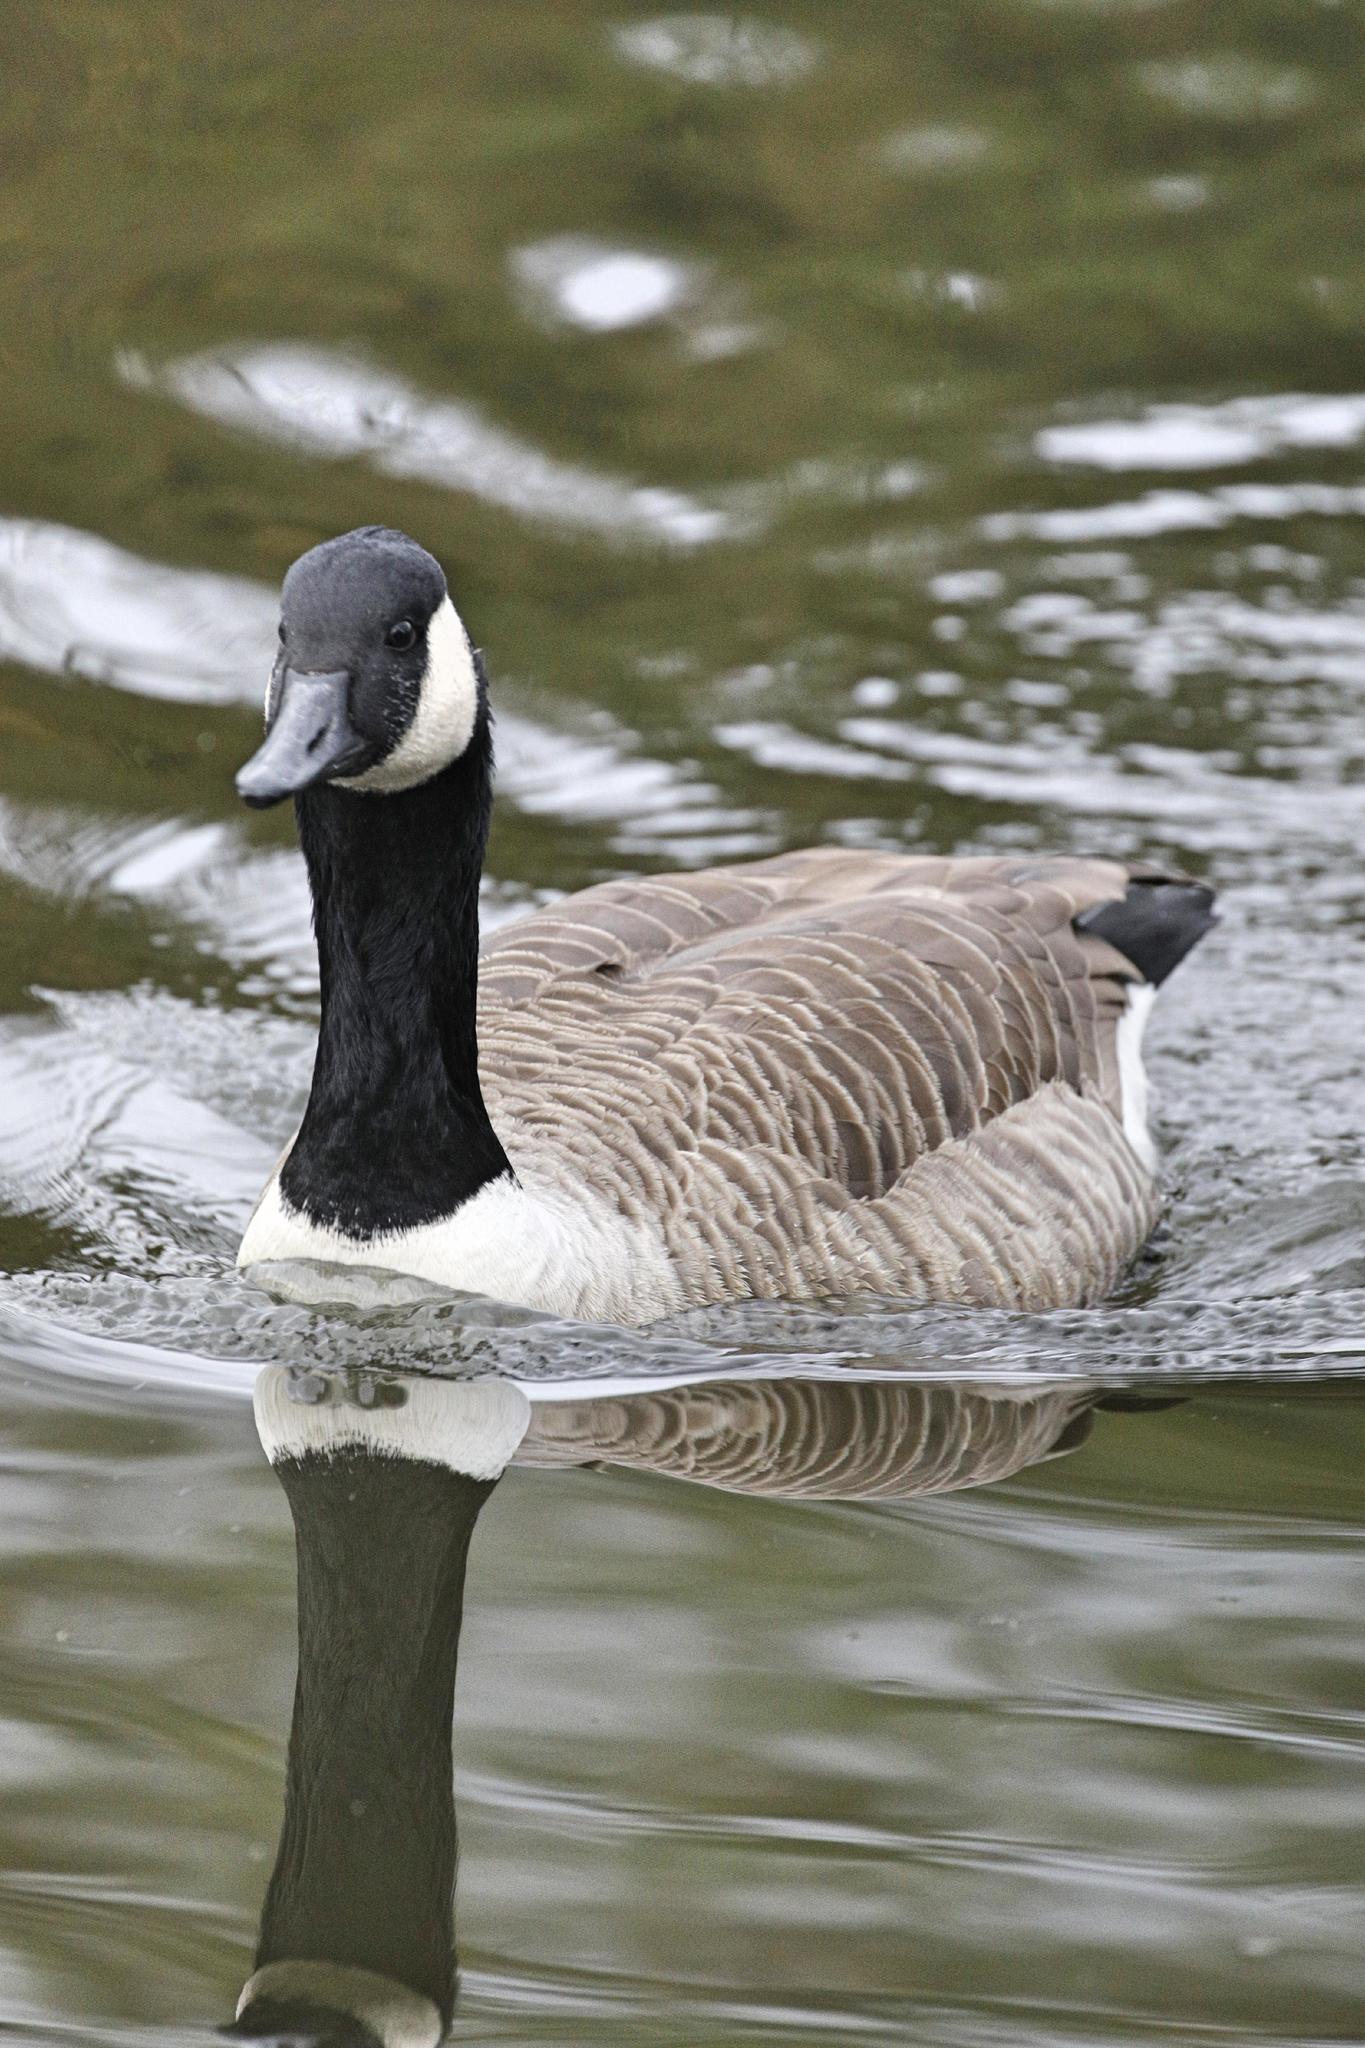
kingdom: Animalia
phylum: Chordata
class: Aves
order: Anseriformes
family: Anatidae
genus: Branta
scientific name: Branta canadensis
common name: Canada goose
